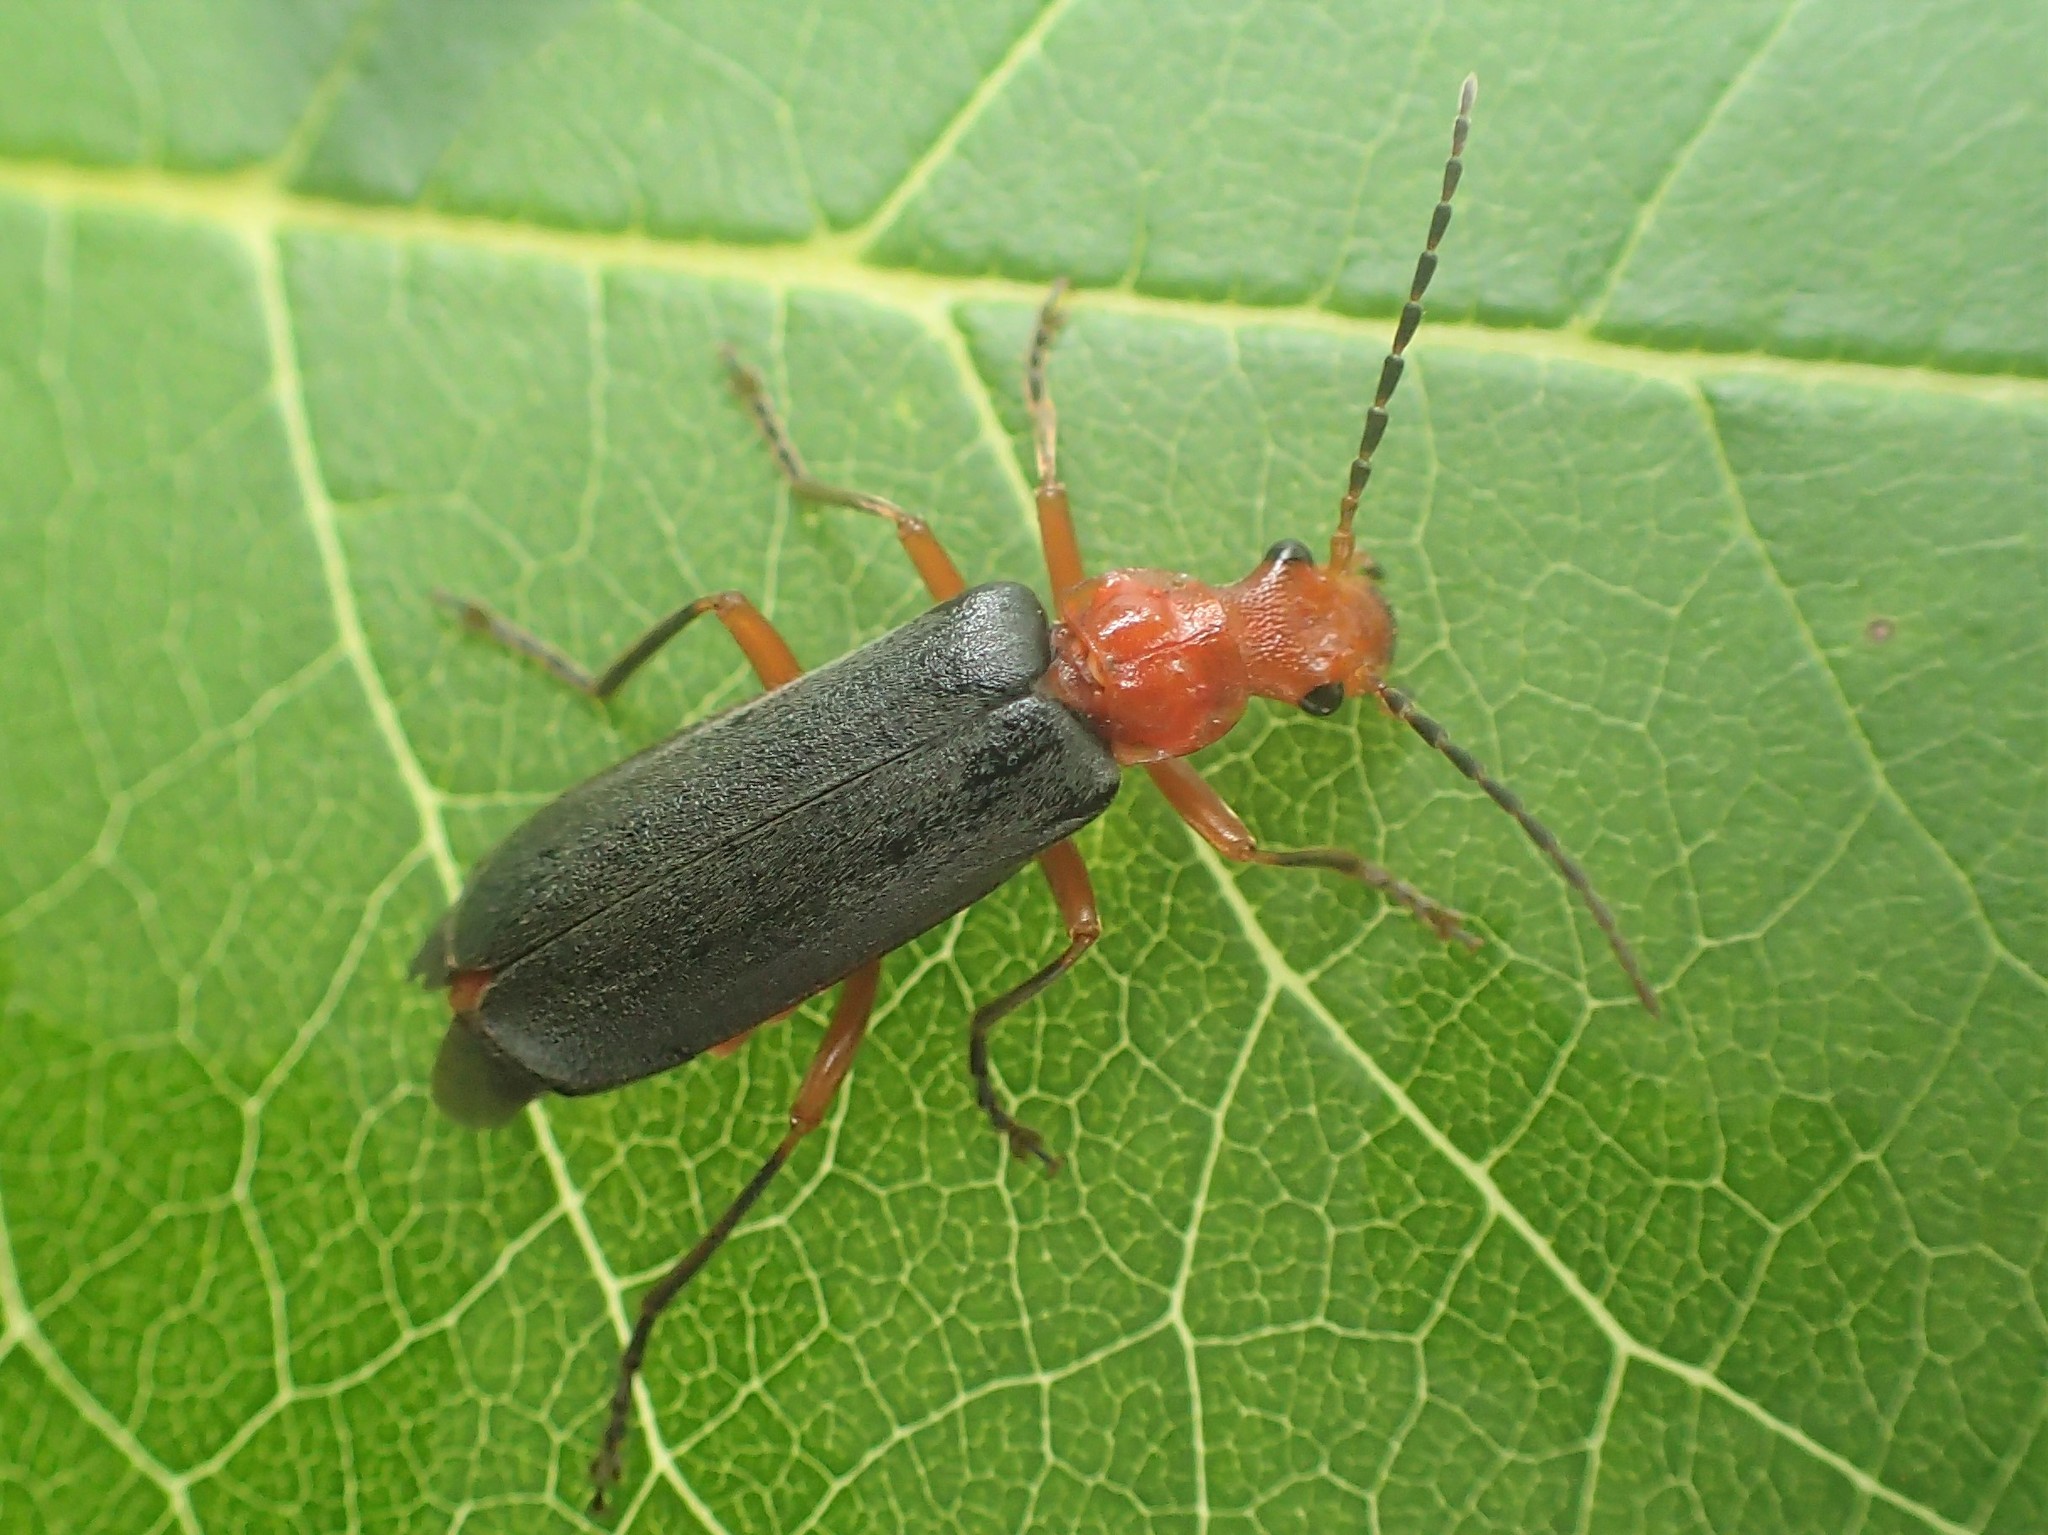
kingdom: Animalia
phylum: Arthropoda
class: Insecta
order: Coleoptera
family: Cantharidae
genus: Podabrus
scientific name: Podabrus tomentosus
